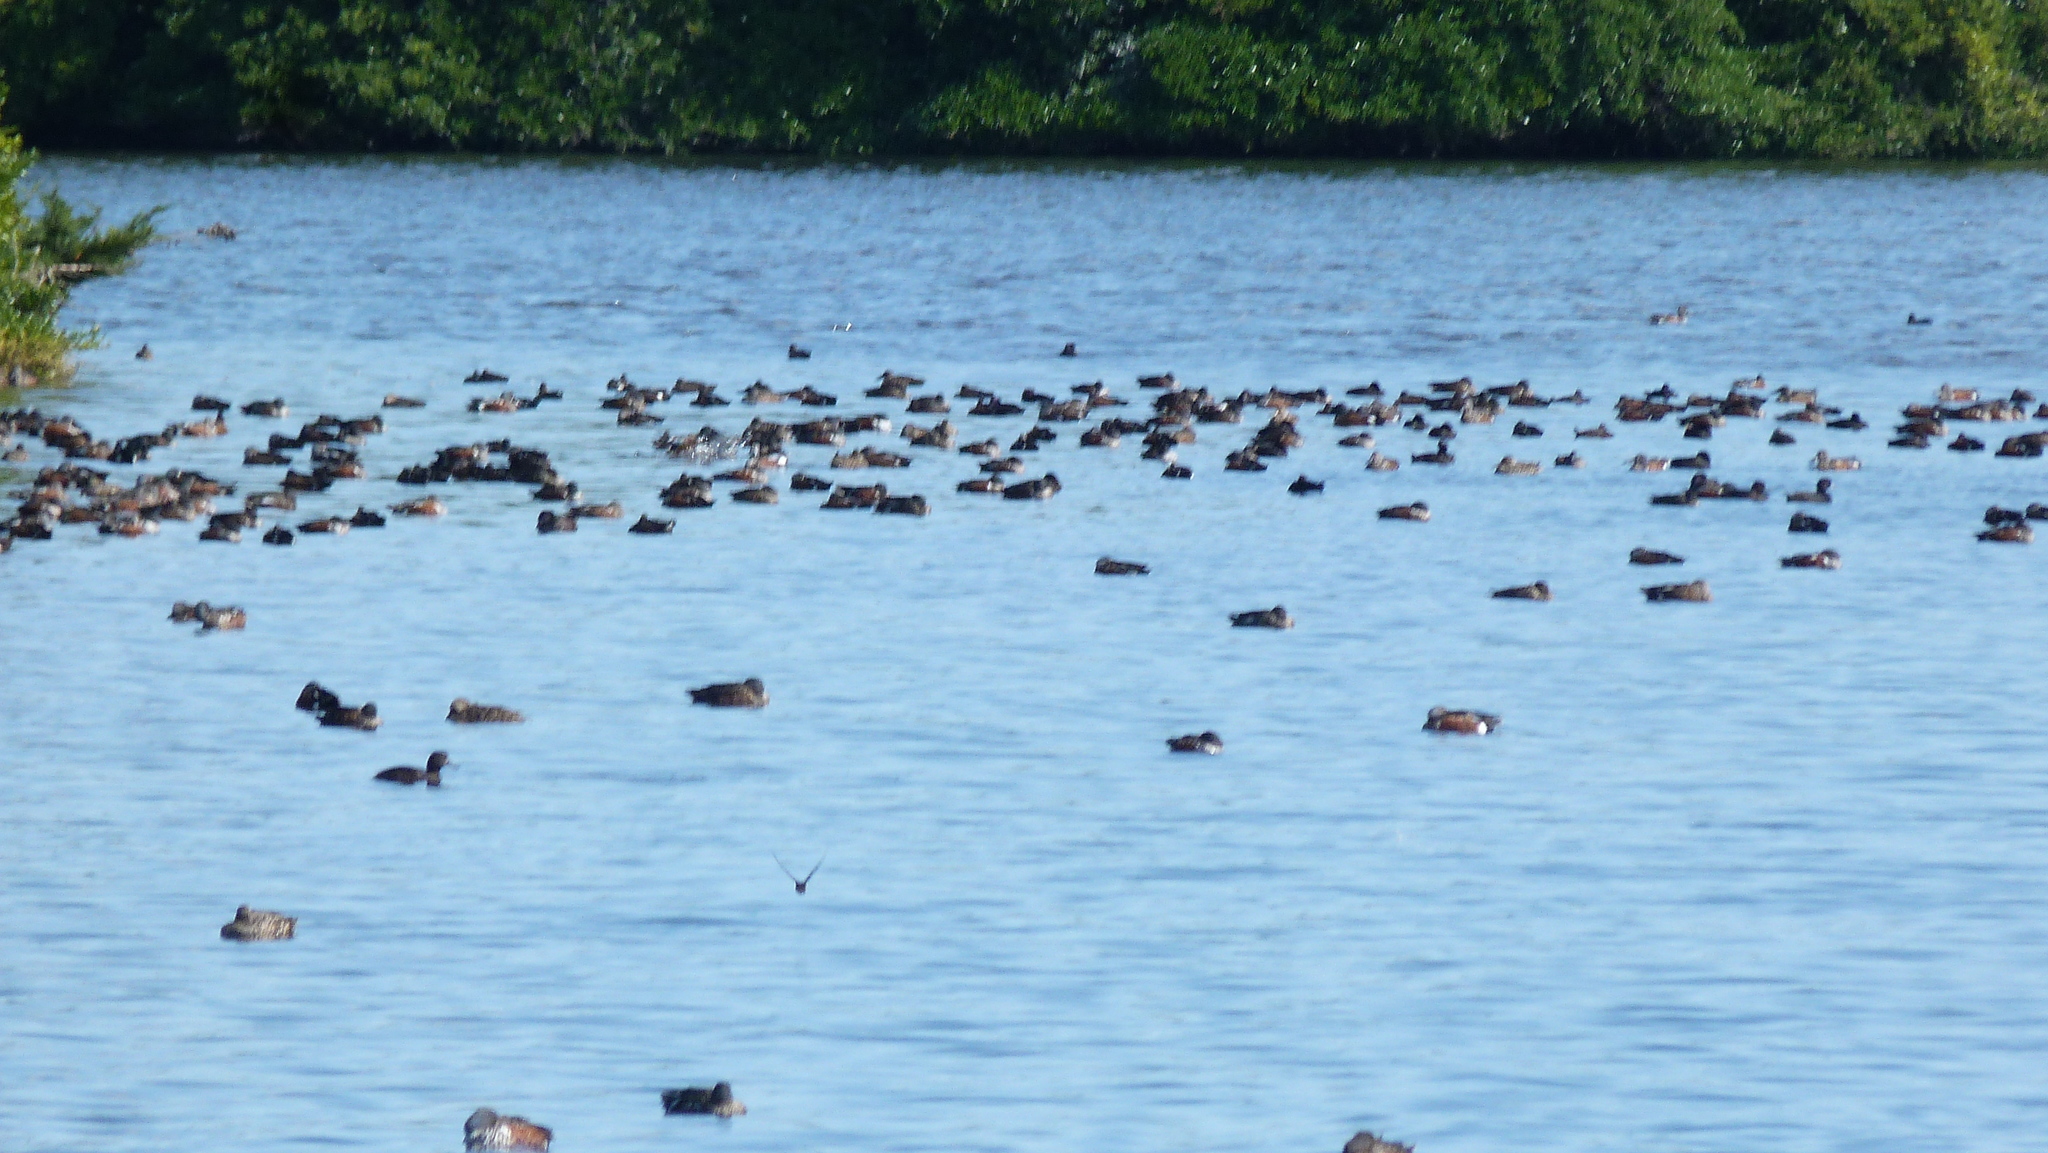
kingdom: Animalia
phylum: Chordata
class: Aves
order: Anseriformes
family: Anatidae
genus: Spatula
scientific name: Spatula rhynchotis
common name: Australian shoveler
